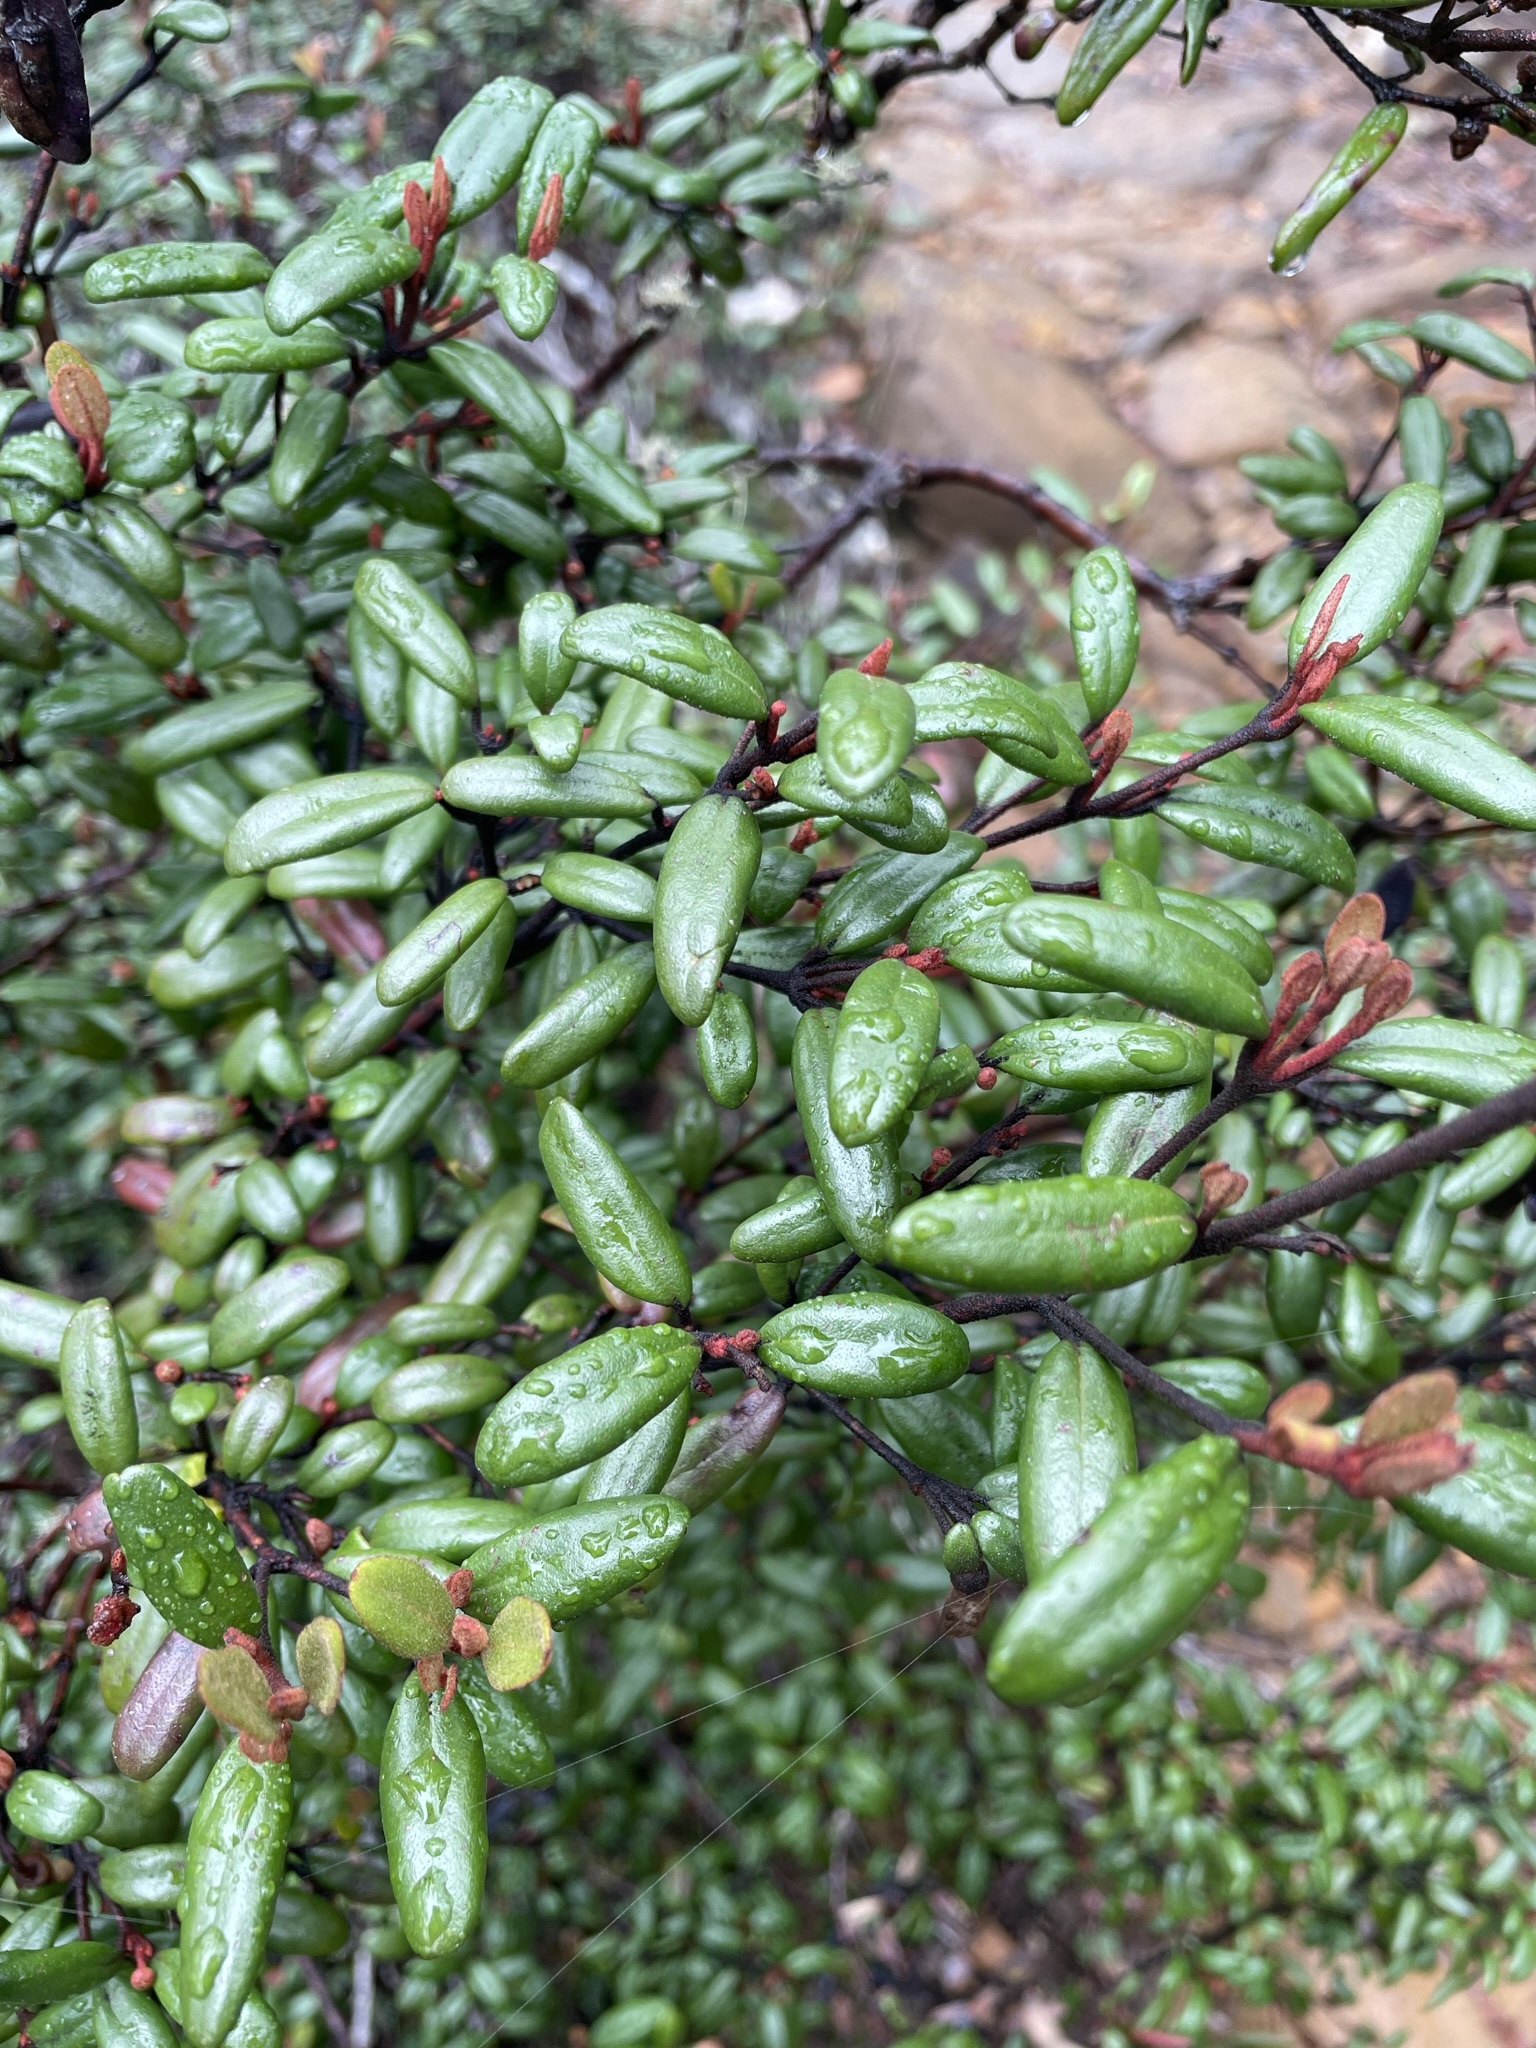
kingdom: Plantae
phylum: Tracheophyta
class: Magnoliopsida
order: Sapindales
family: Rutaceae
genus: Correa
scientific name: Correa lawrenceana
